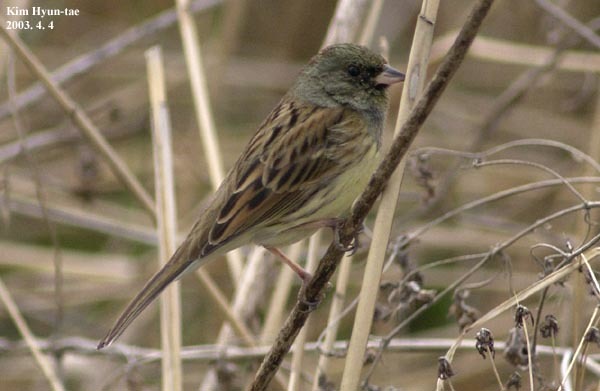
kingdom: Animalia
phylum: Chordata
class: Aves
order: Passeriformes
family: Emberizidae
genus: Emberiza
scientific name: Emberiza spodocephala
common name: Black-faced bunting
